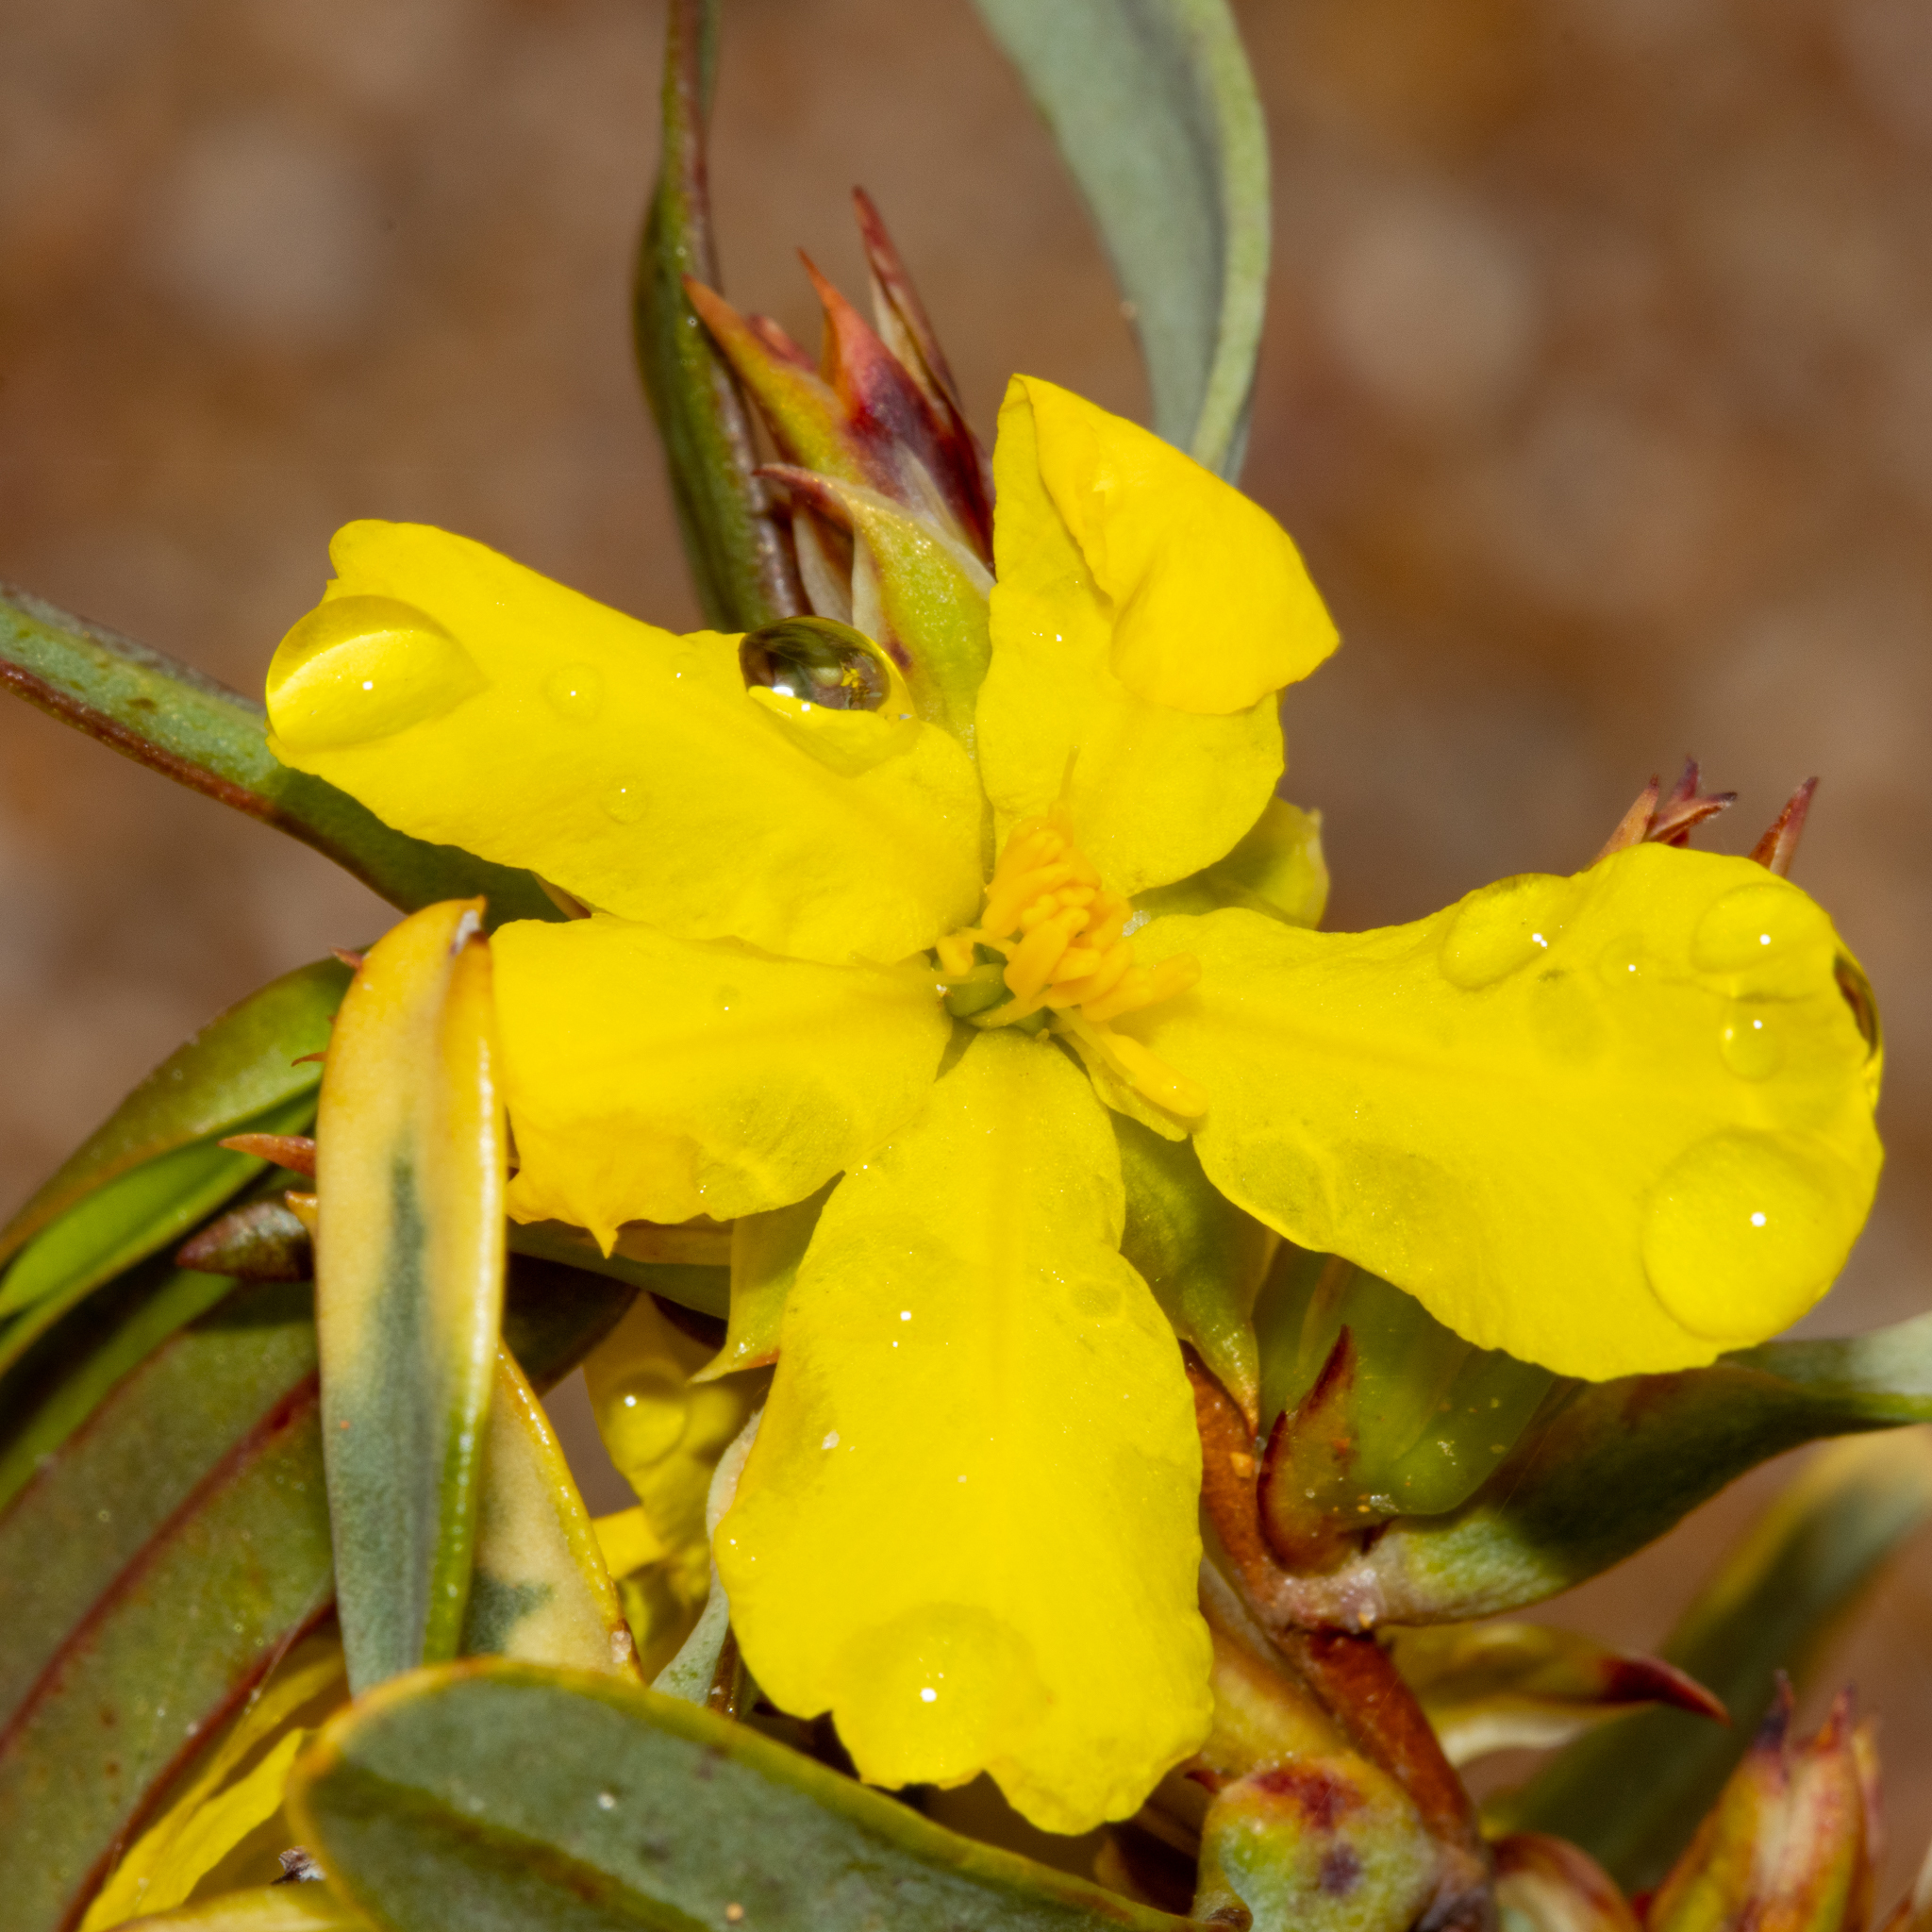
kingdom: Plantae
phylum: Tracheophyta
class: Magnoliopsida
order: Dilleniales
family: Dilleniaceae
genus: Hibbertia
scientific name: Hibbertia subvaginata
